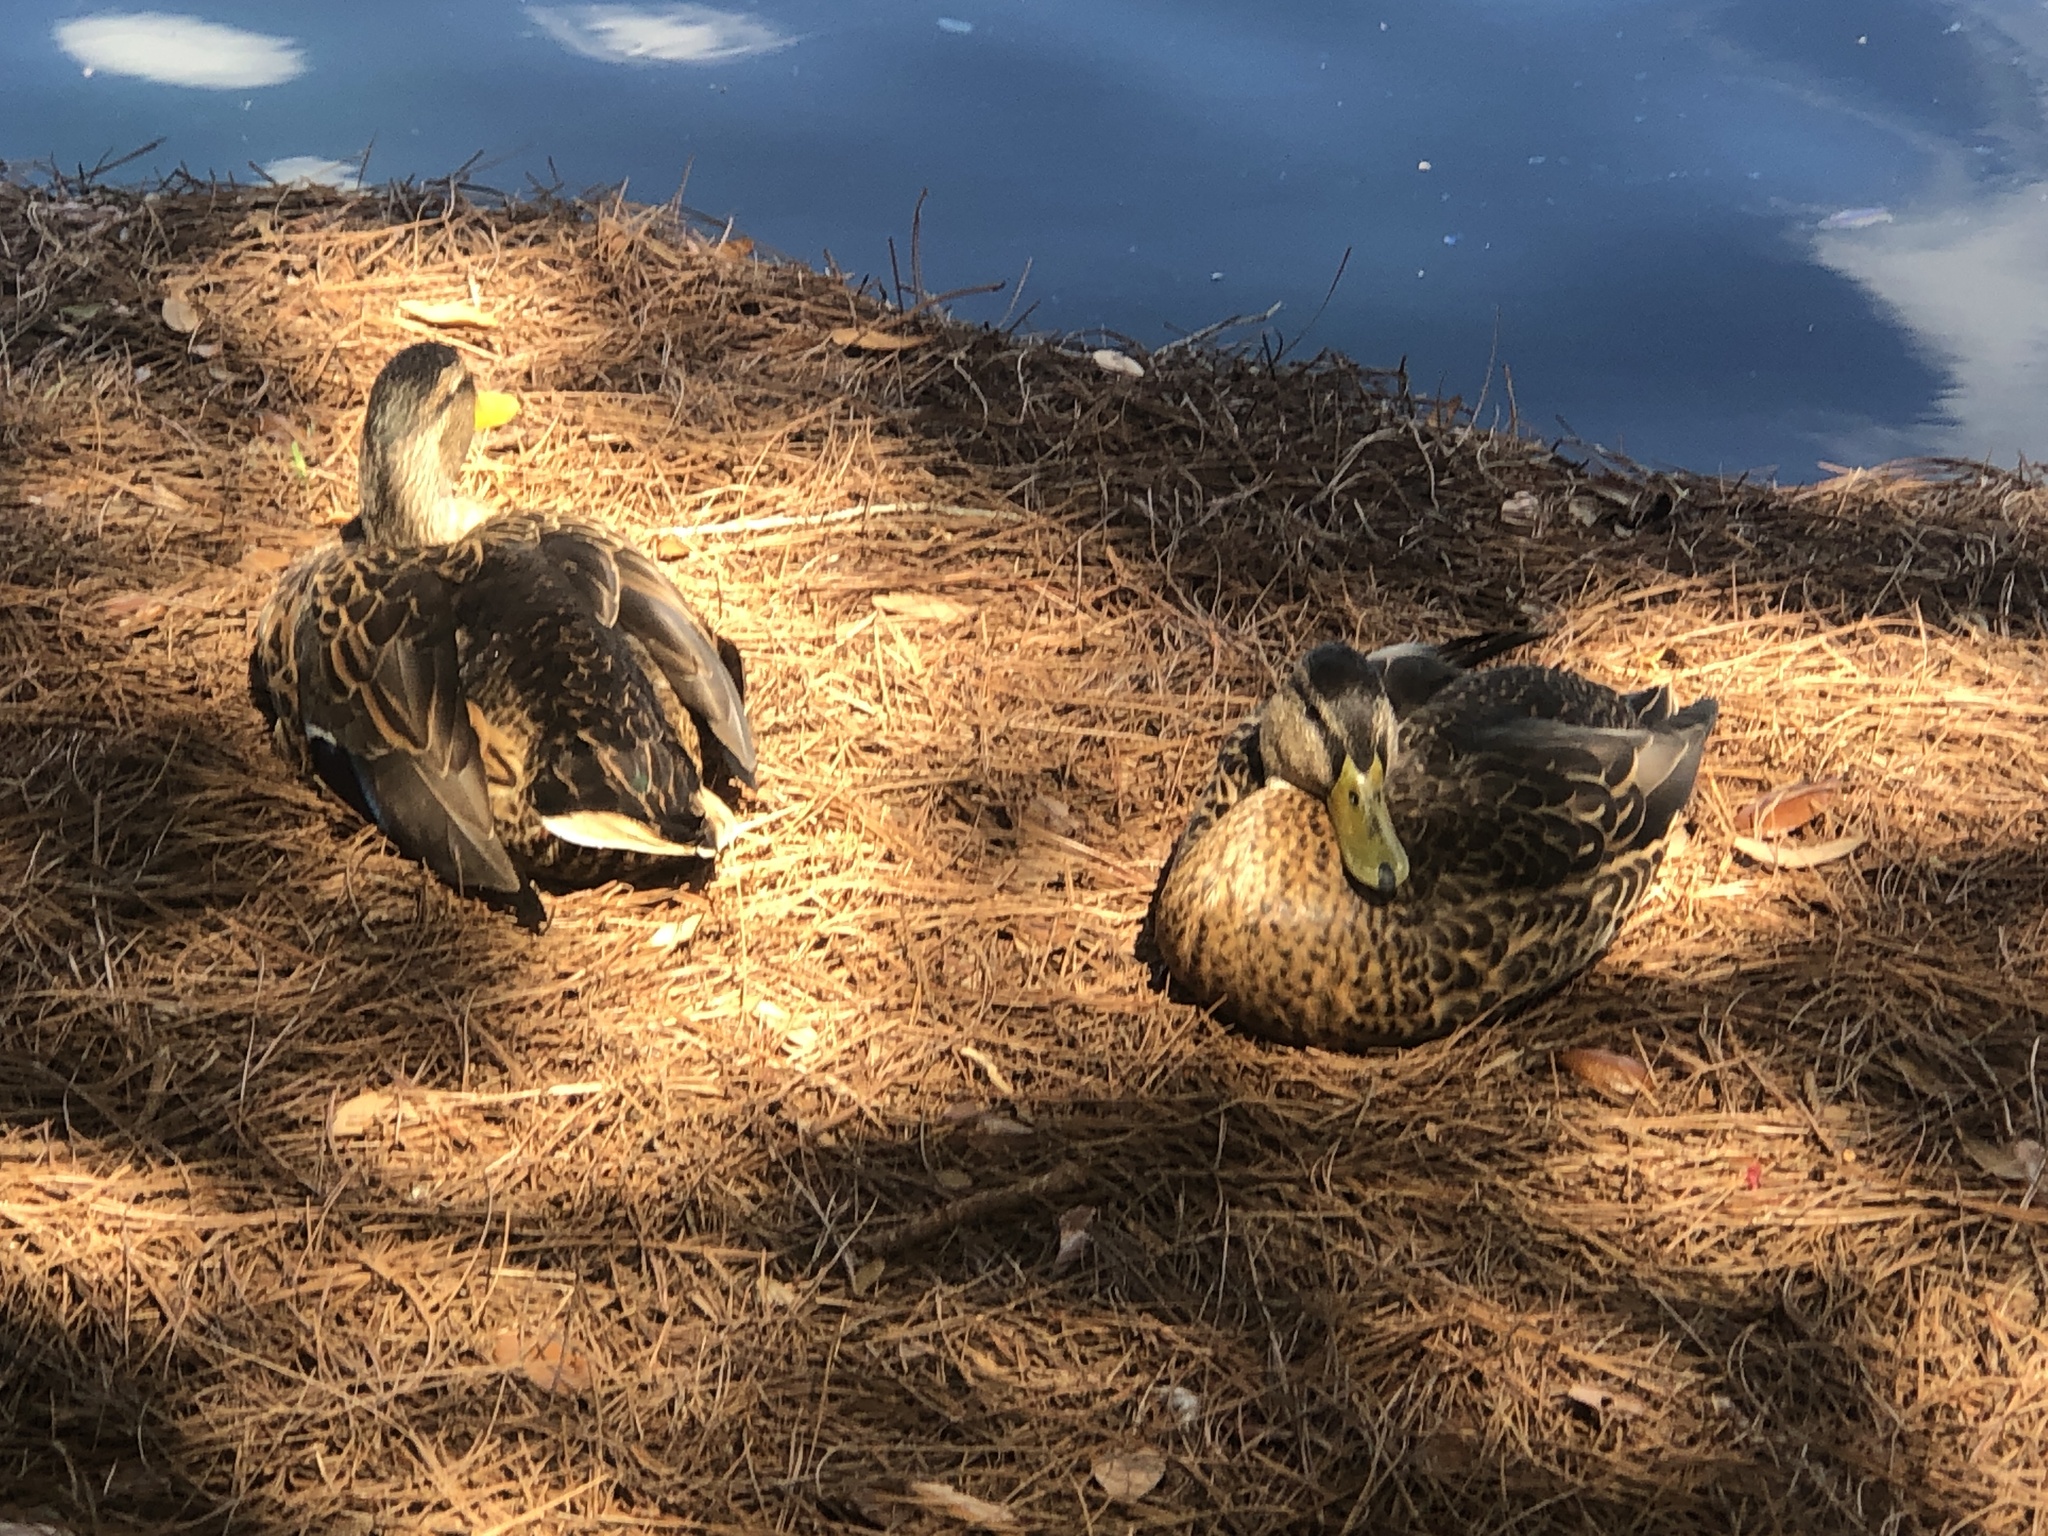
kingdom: Animalia
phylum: Chordata
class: Aves
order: Anseriformes
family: Anatidae
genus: Anas
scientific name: Anas platyrhynchos
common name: Mallard
